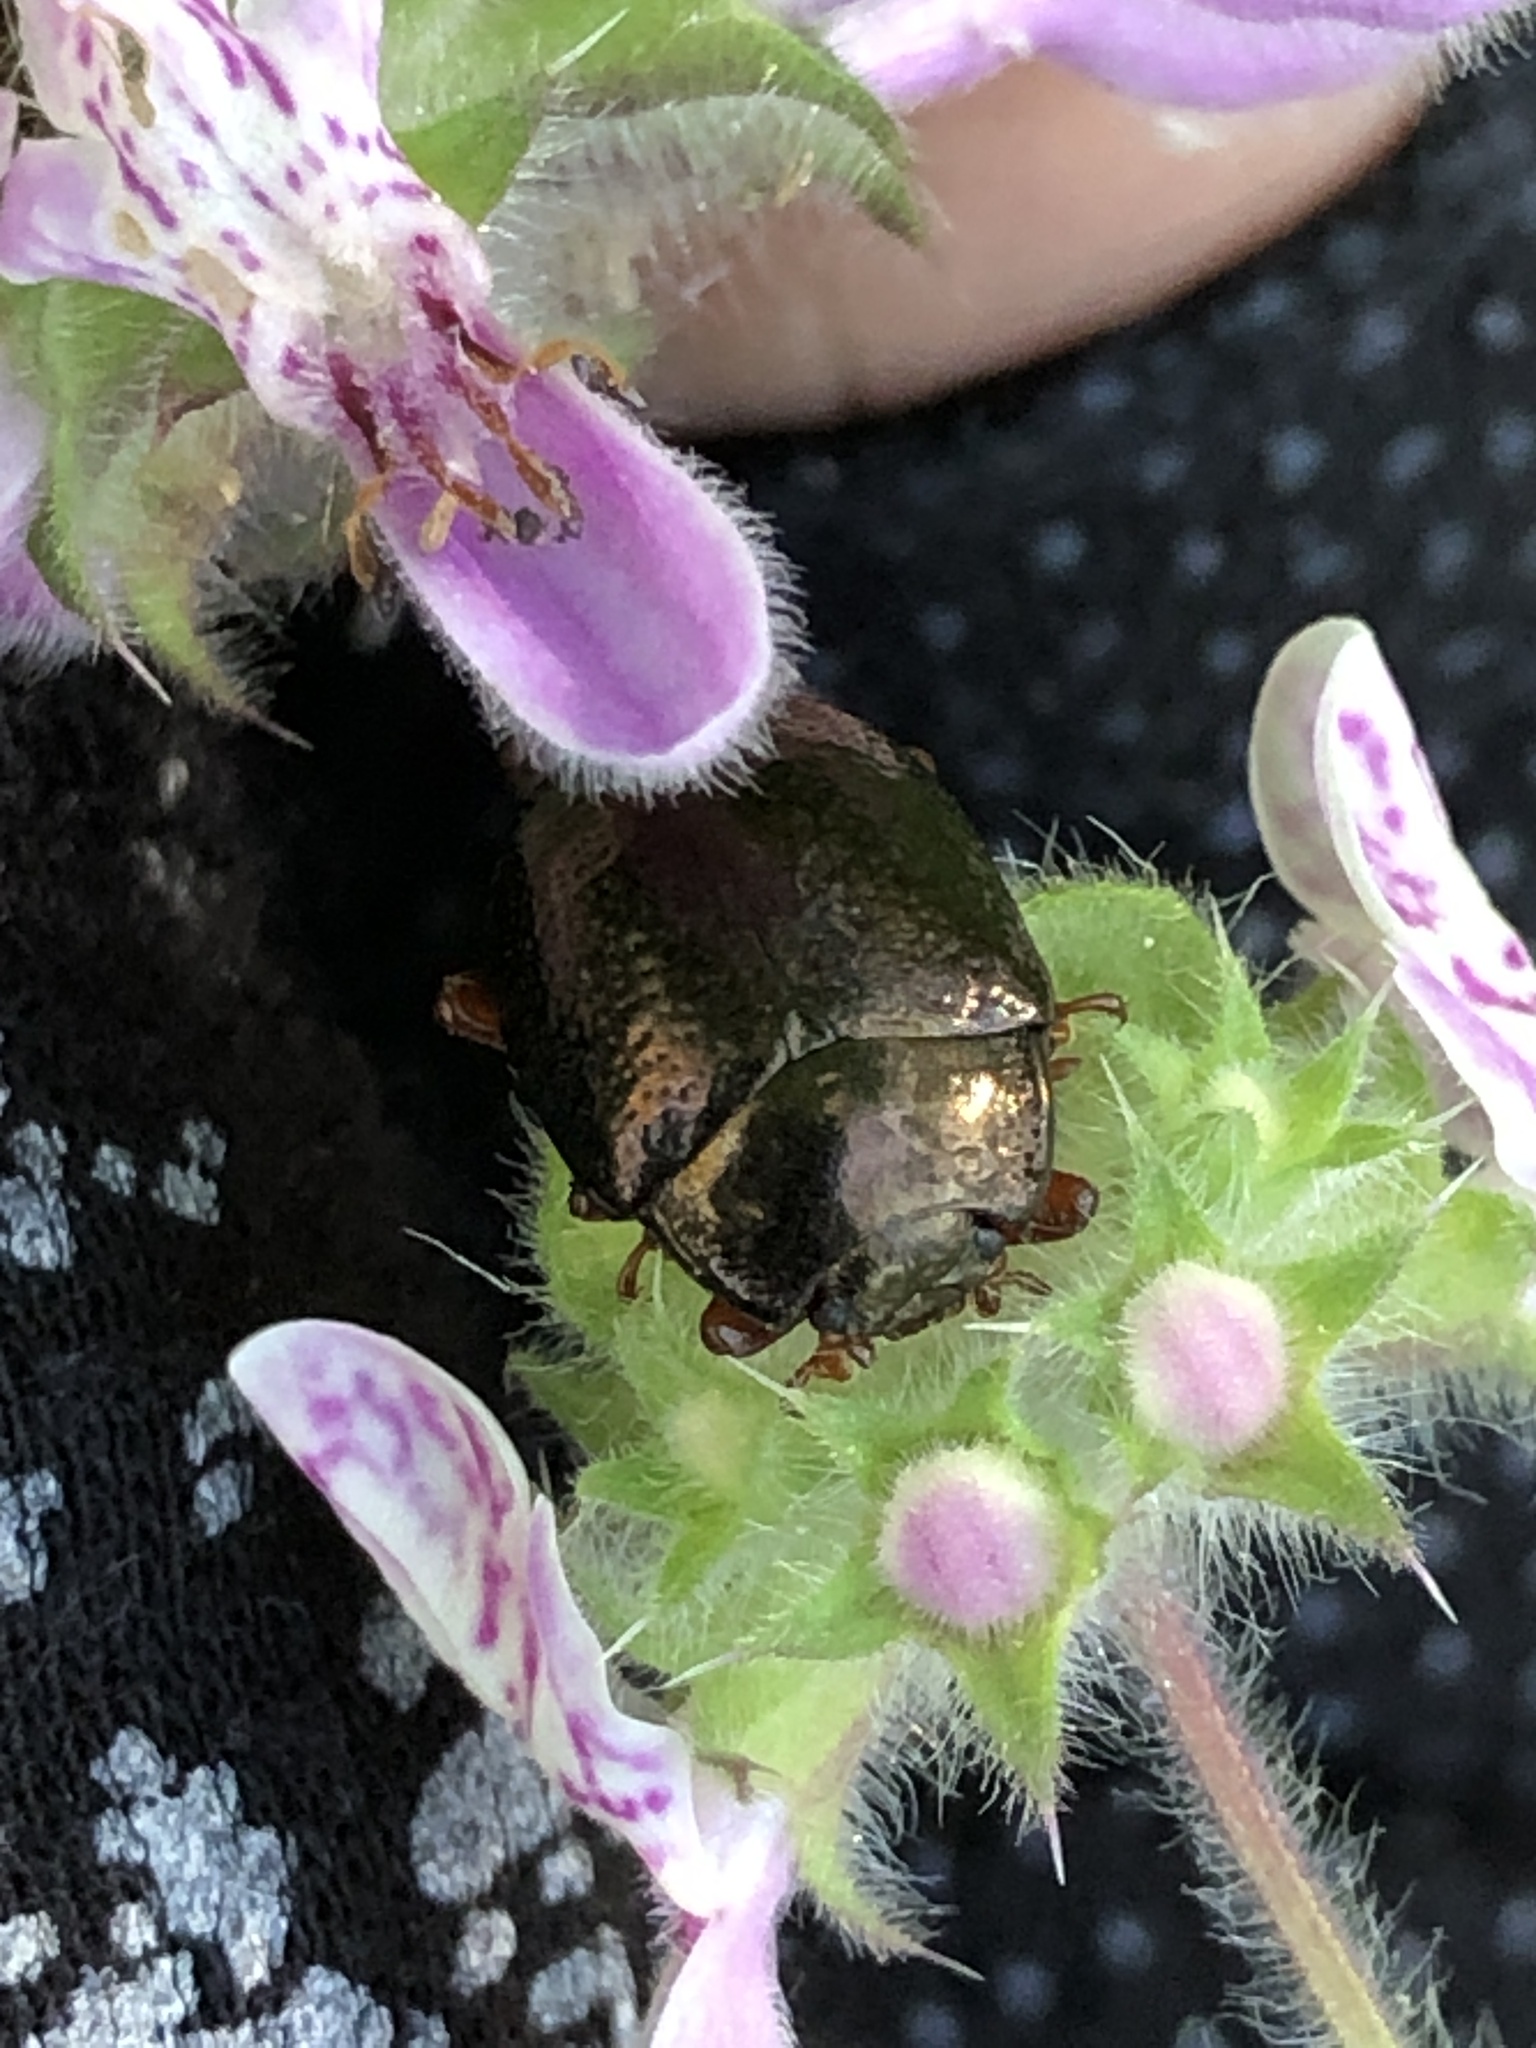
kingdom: Animalia
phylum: Arthropoda
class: Insecta
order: Coleoptera
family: Chrysomelidae
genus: Chrysolina
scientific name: Chrysolina bankii
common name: Leaf beetle
